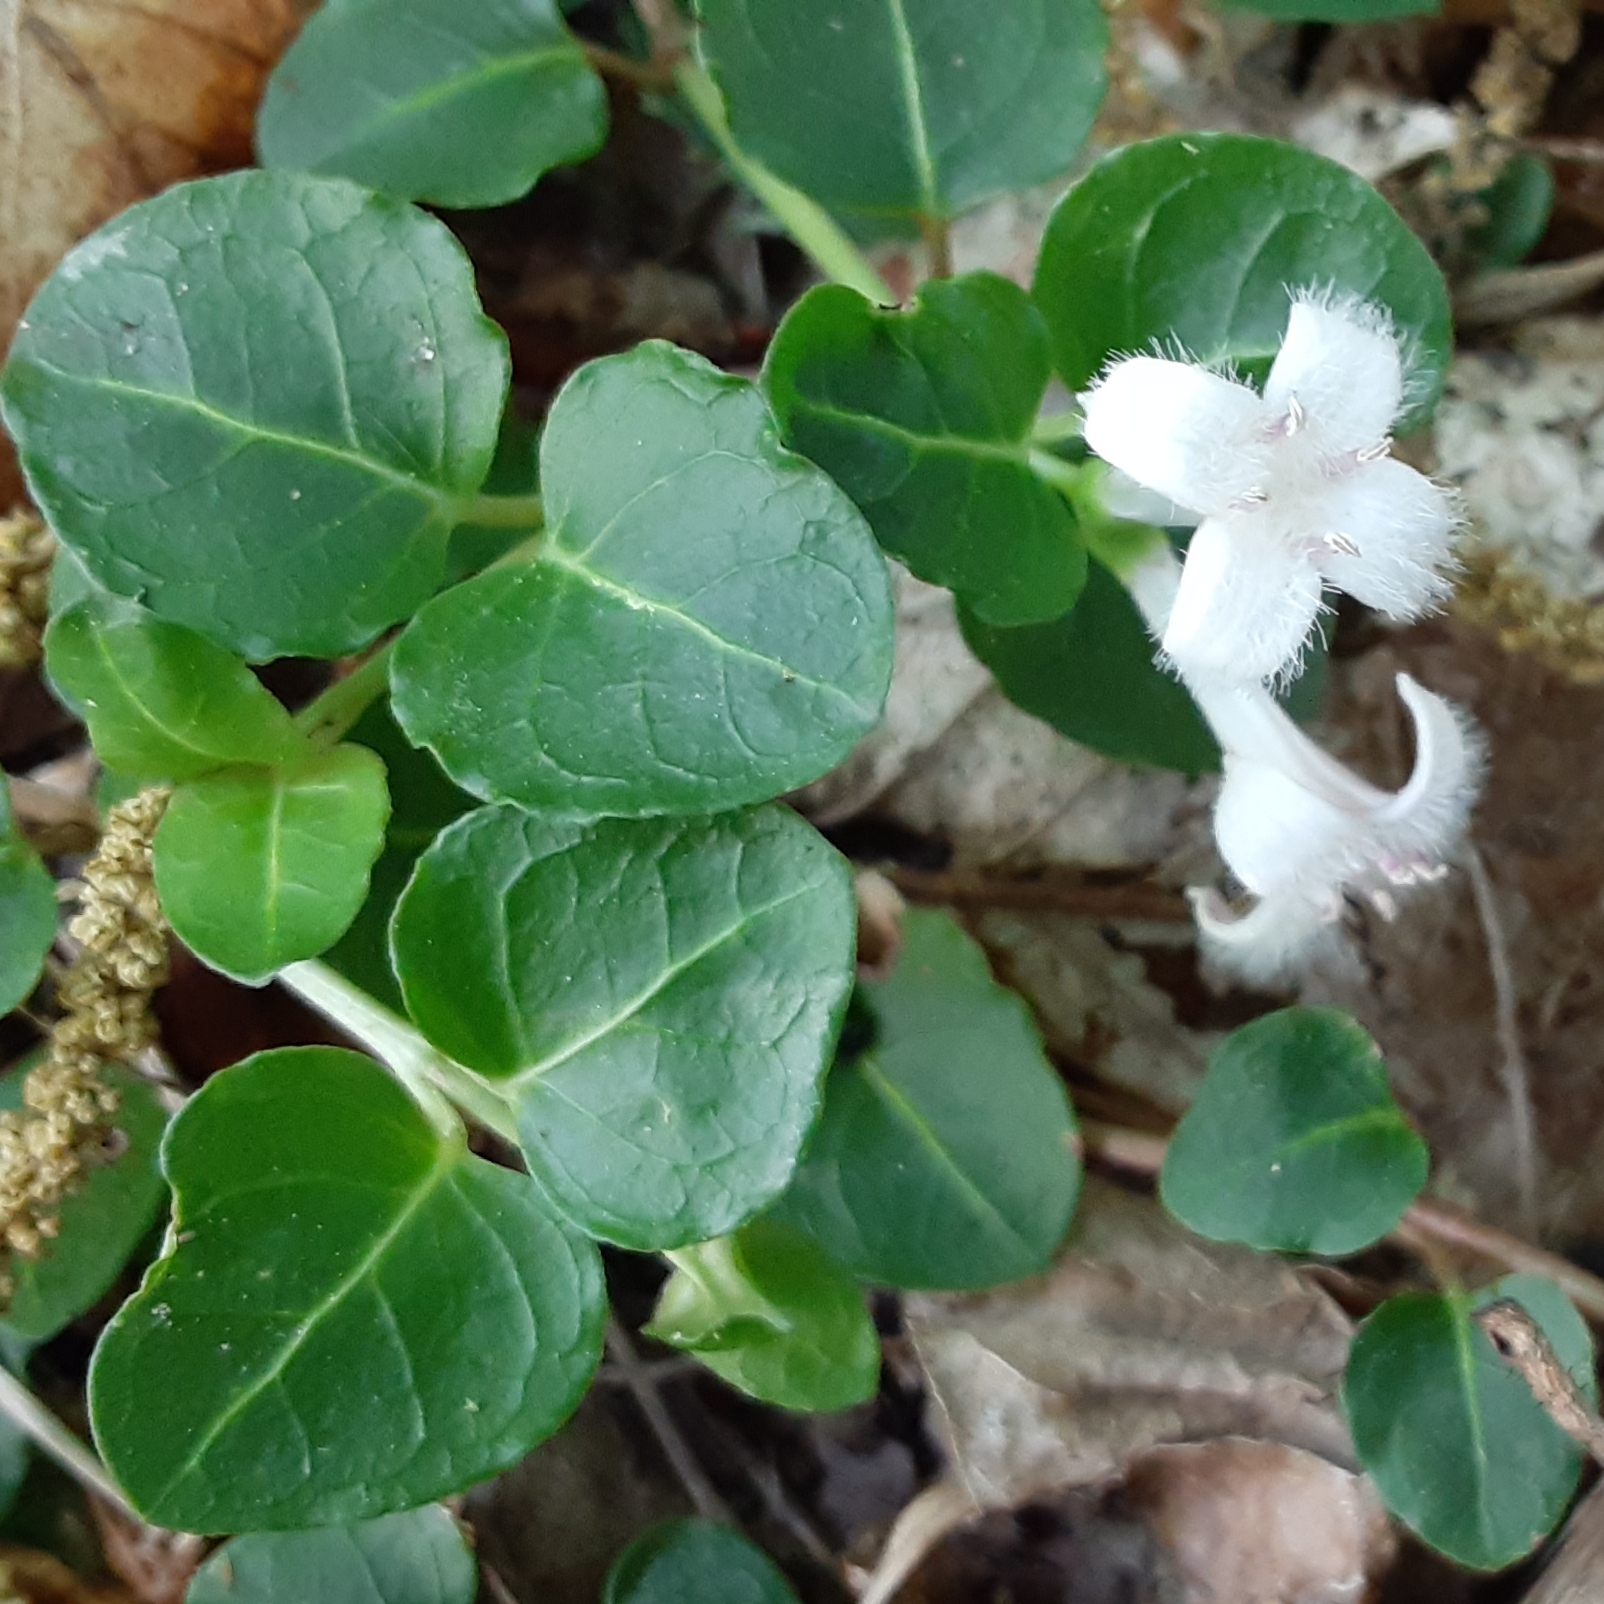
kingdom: Plantae
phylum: Tracheophyta
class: Magnoliopsida
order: Gentianales
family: Rubiaceae
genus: Mitchella
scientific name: Mitchella repens
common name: Partridge-berry
